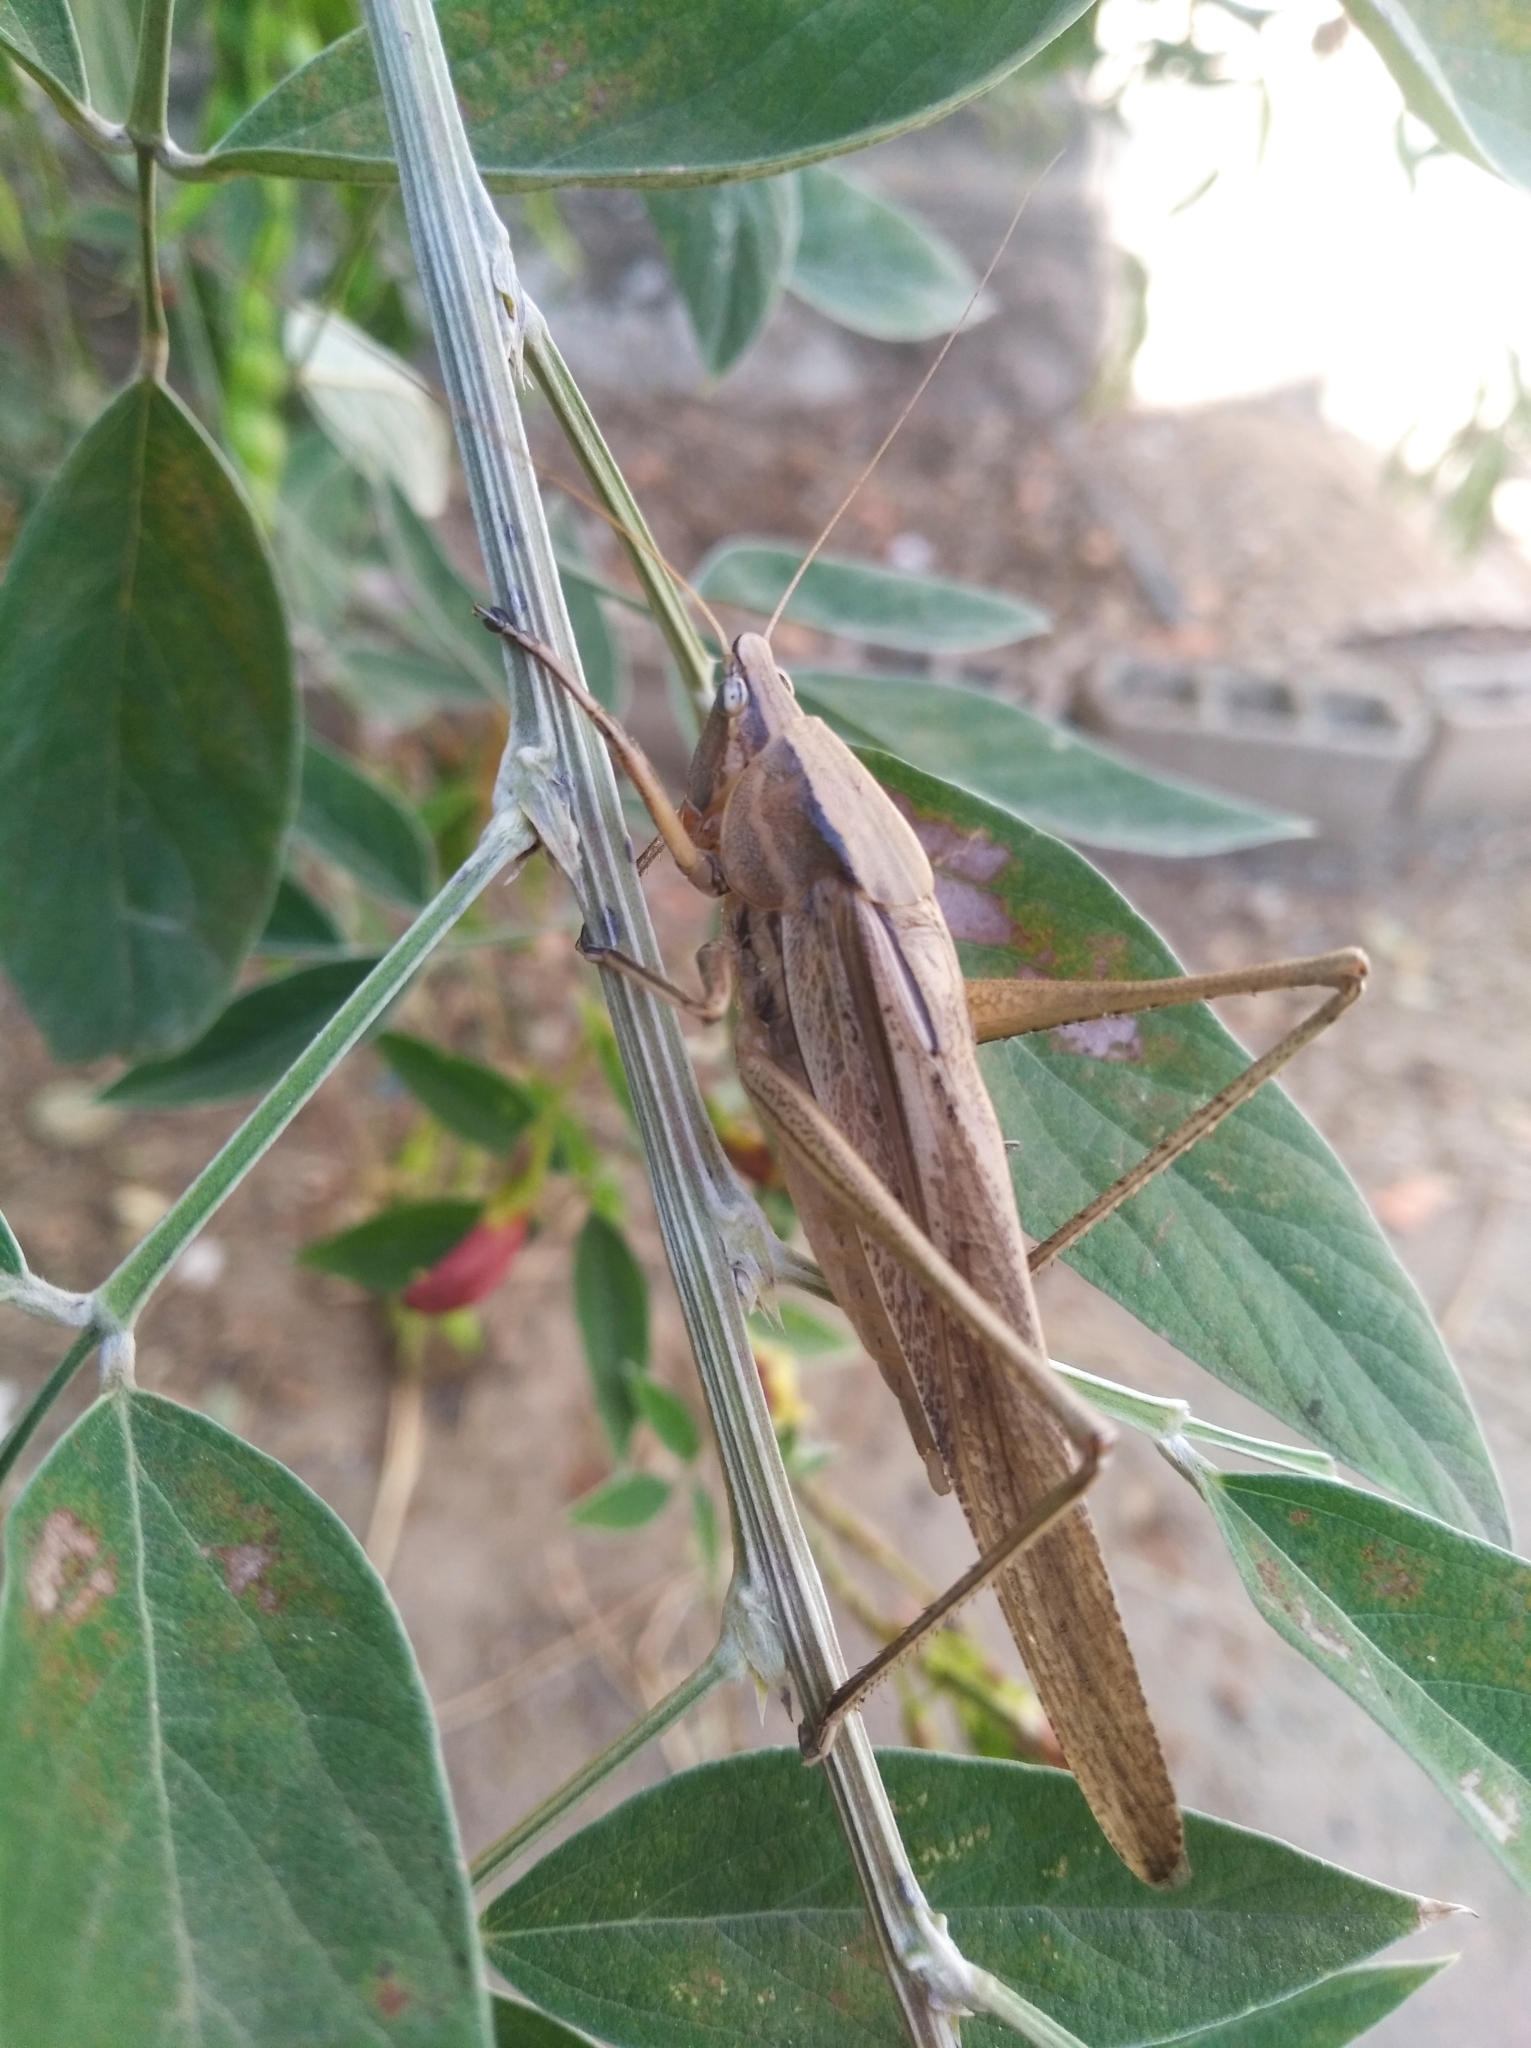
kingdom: Animalia
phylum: Arthropoda
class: Insecta
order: Orthoptera
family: Tettigoniidae
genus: Neoconocephalus
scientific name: Neoconocephalus triops
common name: Broad-tipped conehead
